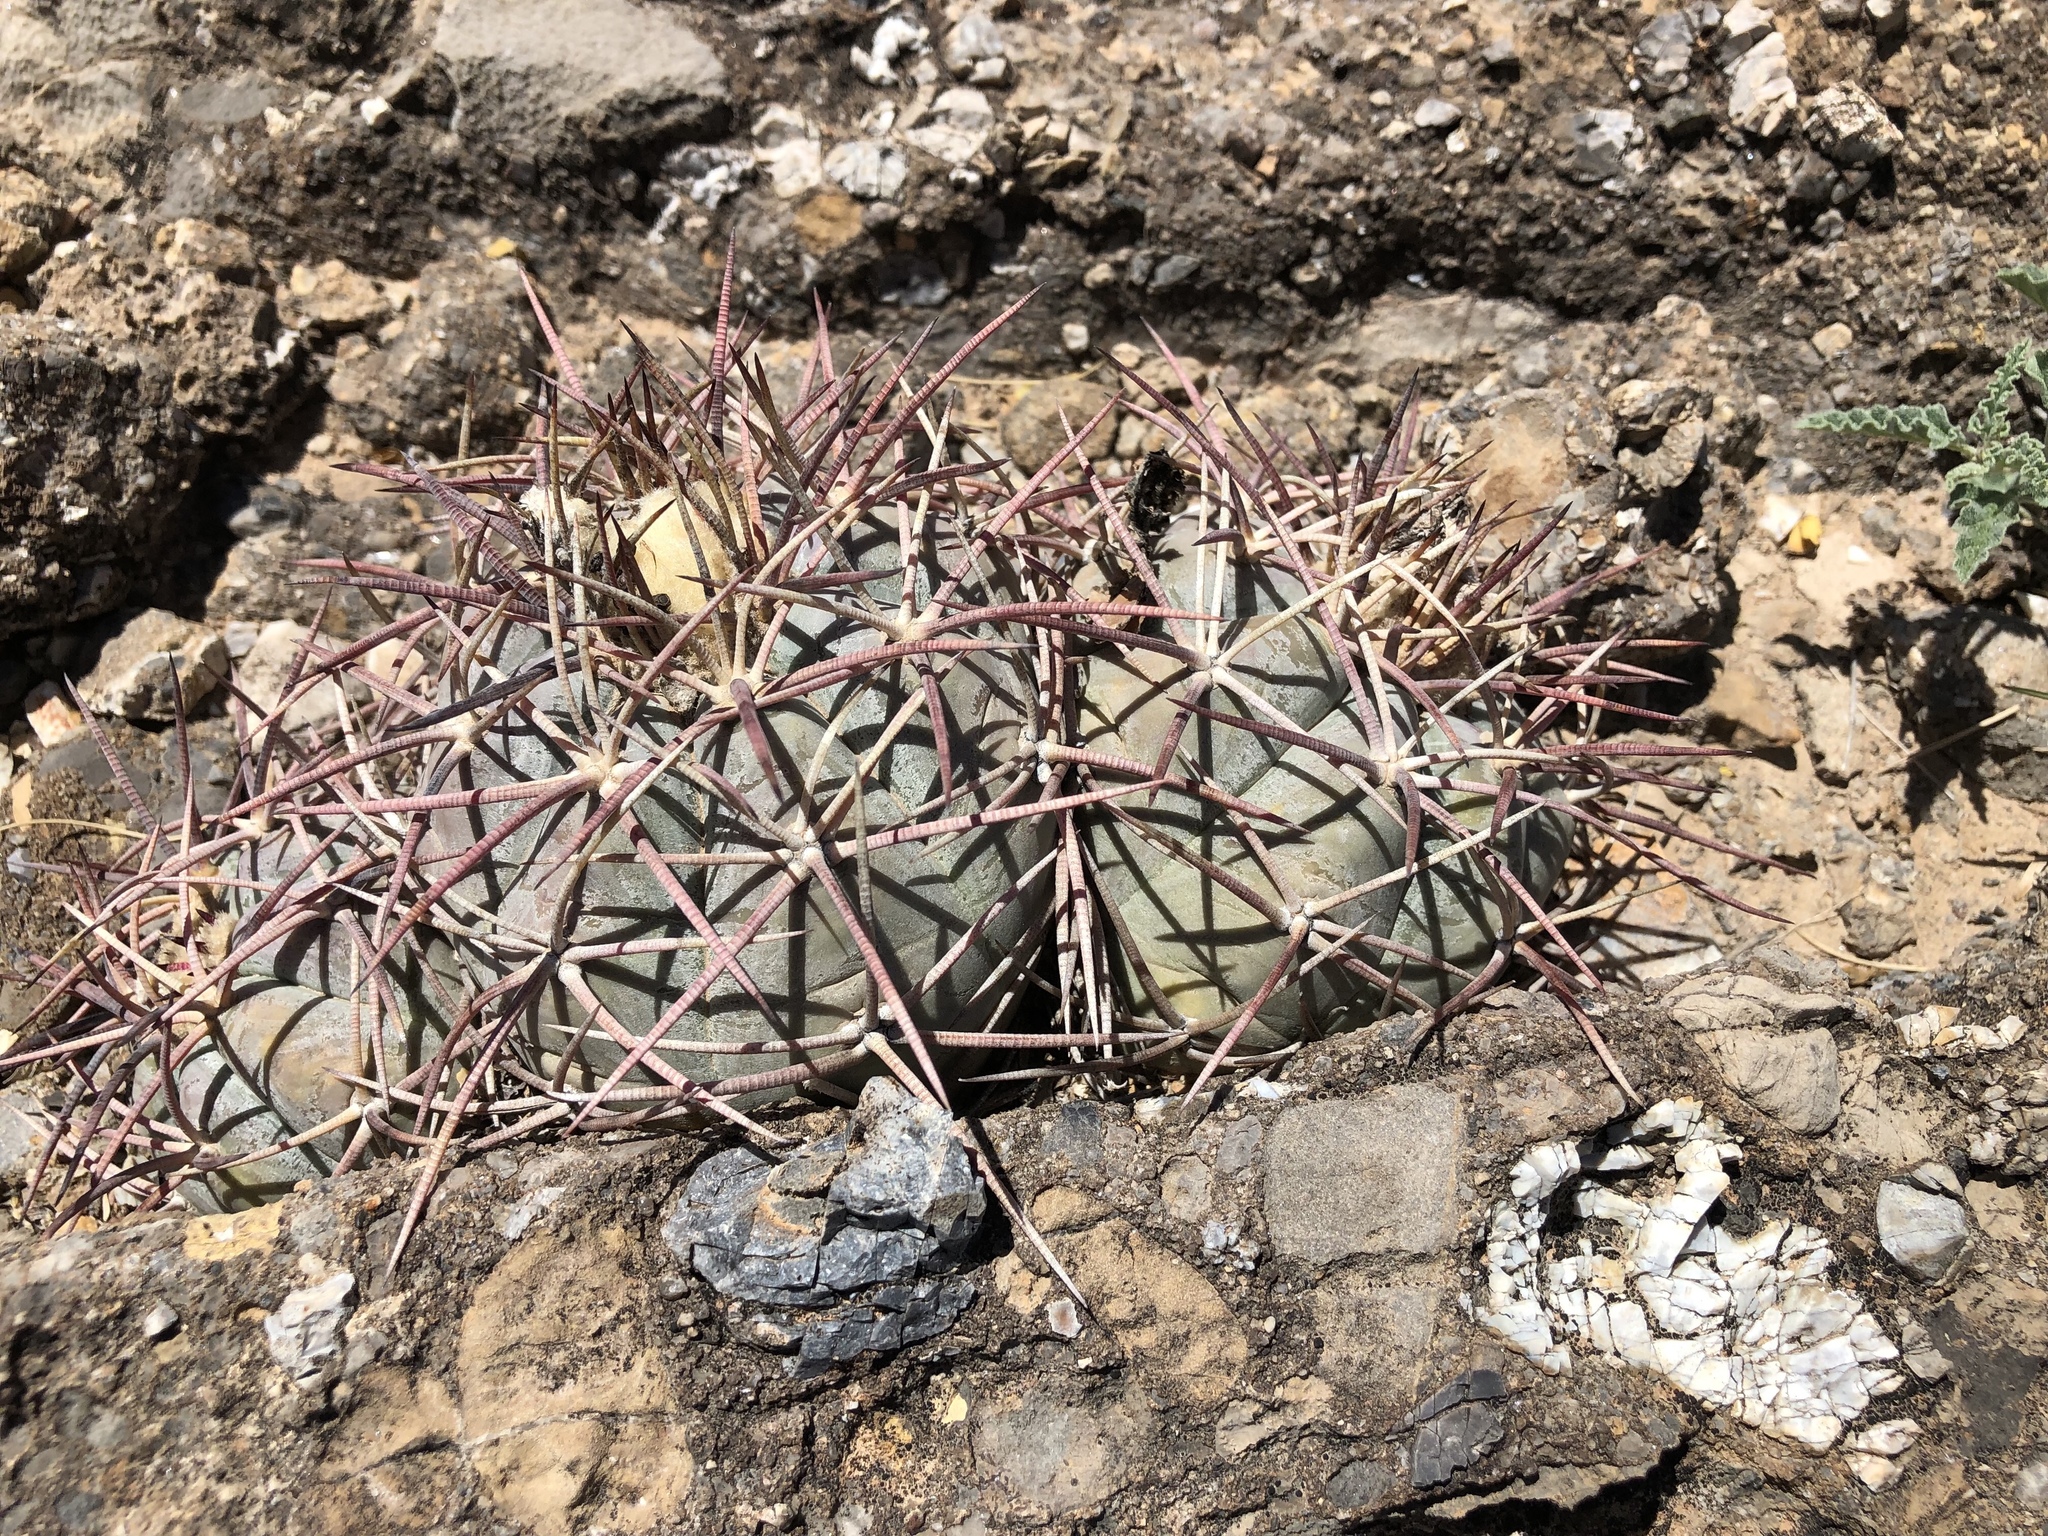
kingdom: Plantae
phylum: Tracheophyta
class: Magnoliopsida
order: Caryophyllales
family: Cactaceae
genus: Echinocactus
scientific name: Echinocactus horizonthalonius
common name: Devilshead
